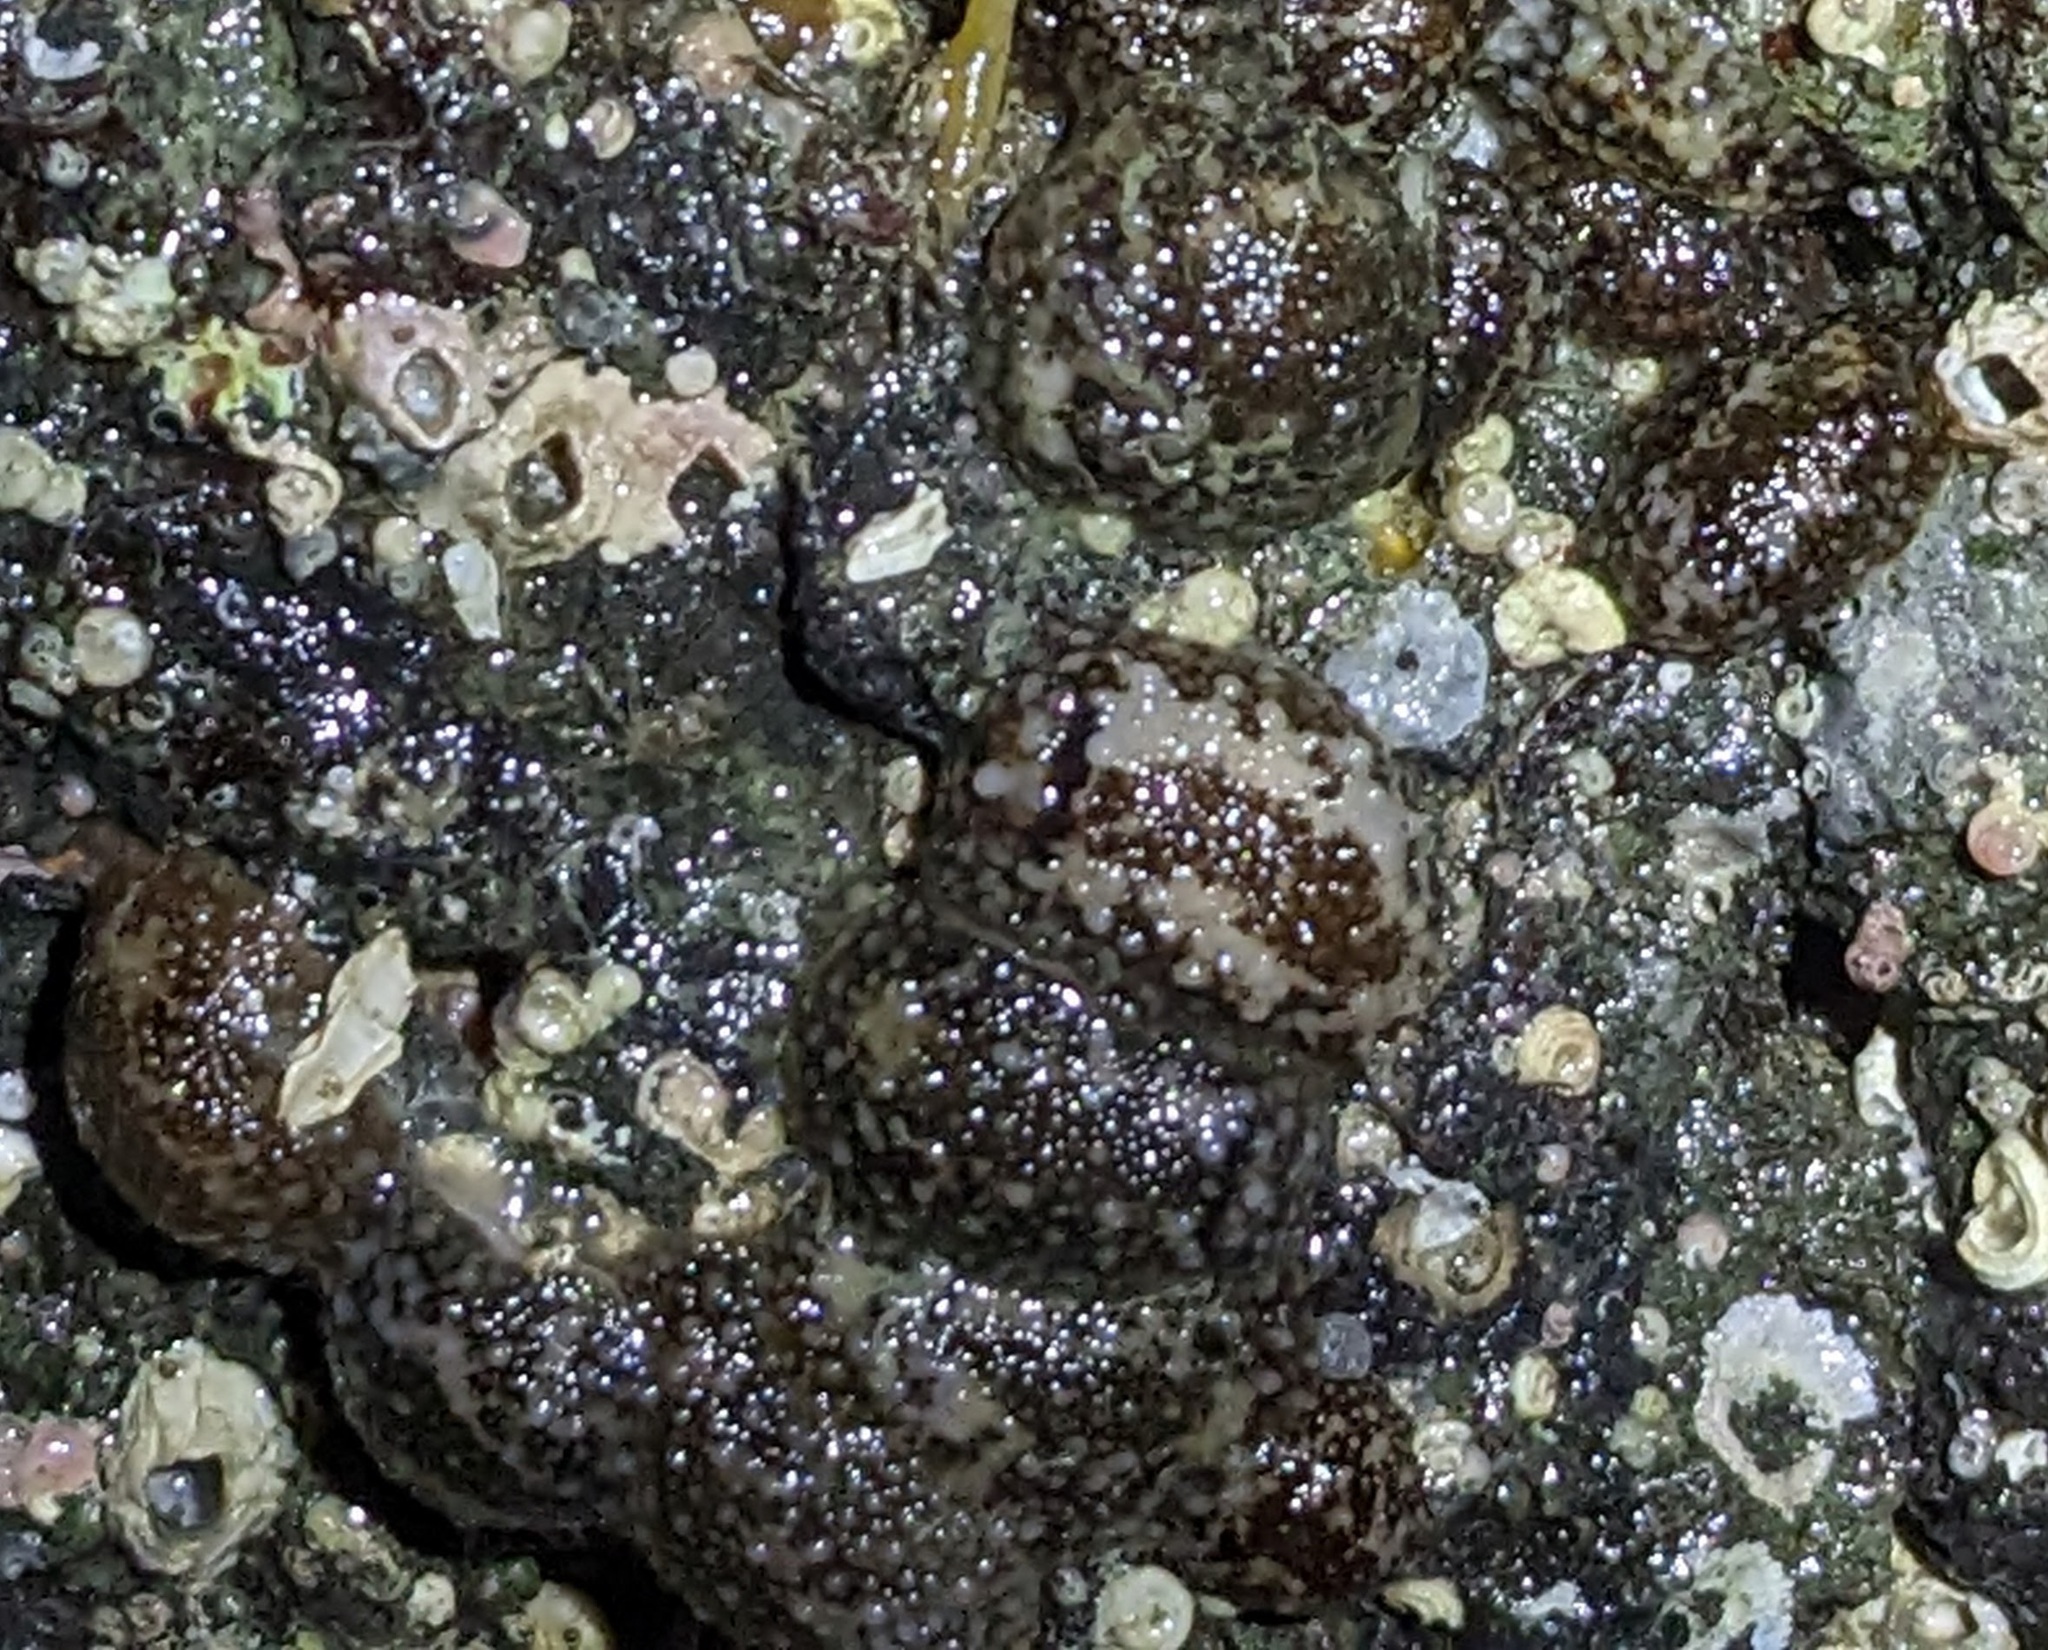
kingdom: Animalia
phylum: Mollusca
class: Gastropoda
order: Nudibranchia
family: Onchidorididae
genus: Onchidoris
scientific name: Onchidoris bilamellata
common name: Barnacle-eating onchidoris
